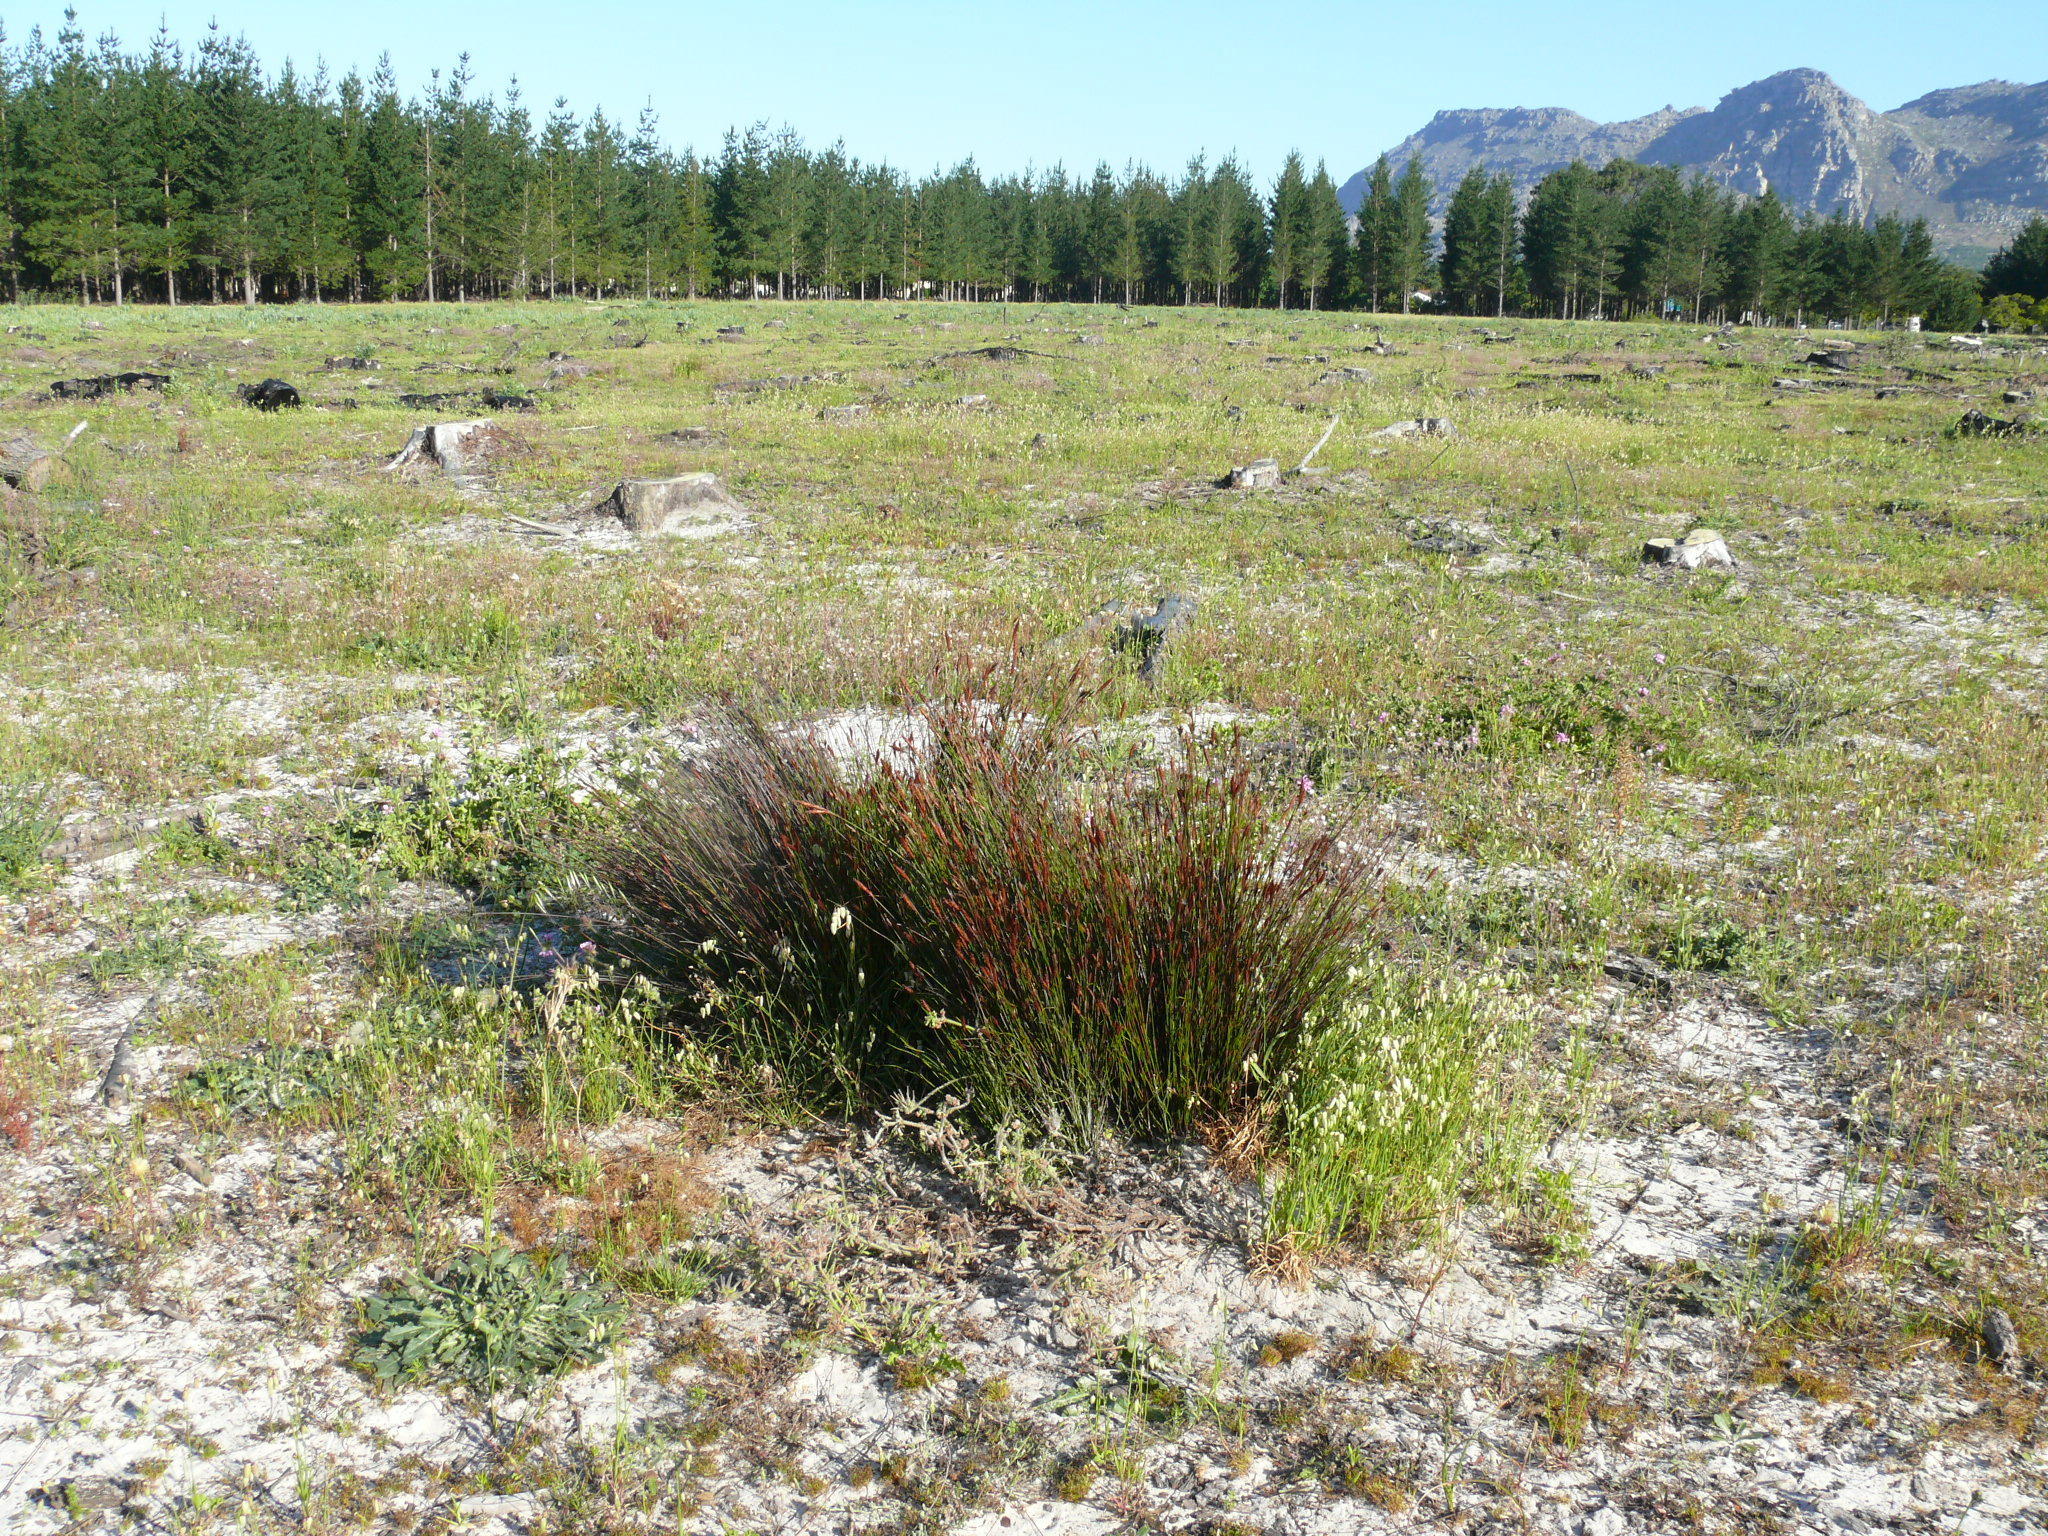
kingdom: Plantae
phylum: Tracheophyta
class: Liliopsida
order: Poales
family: Restionaceae
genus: Staberoha
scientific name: Staberoha distachyos
